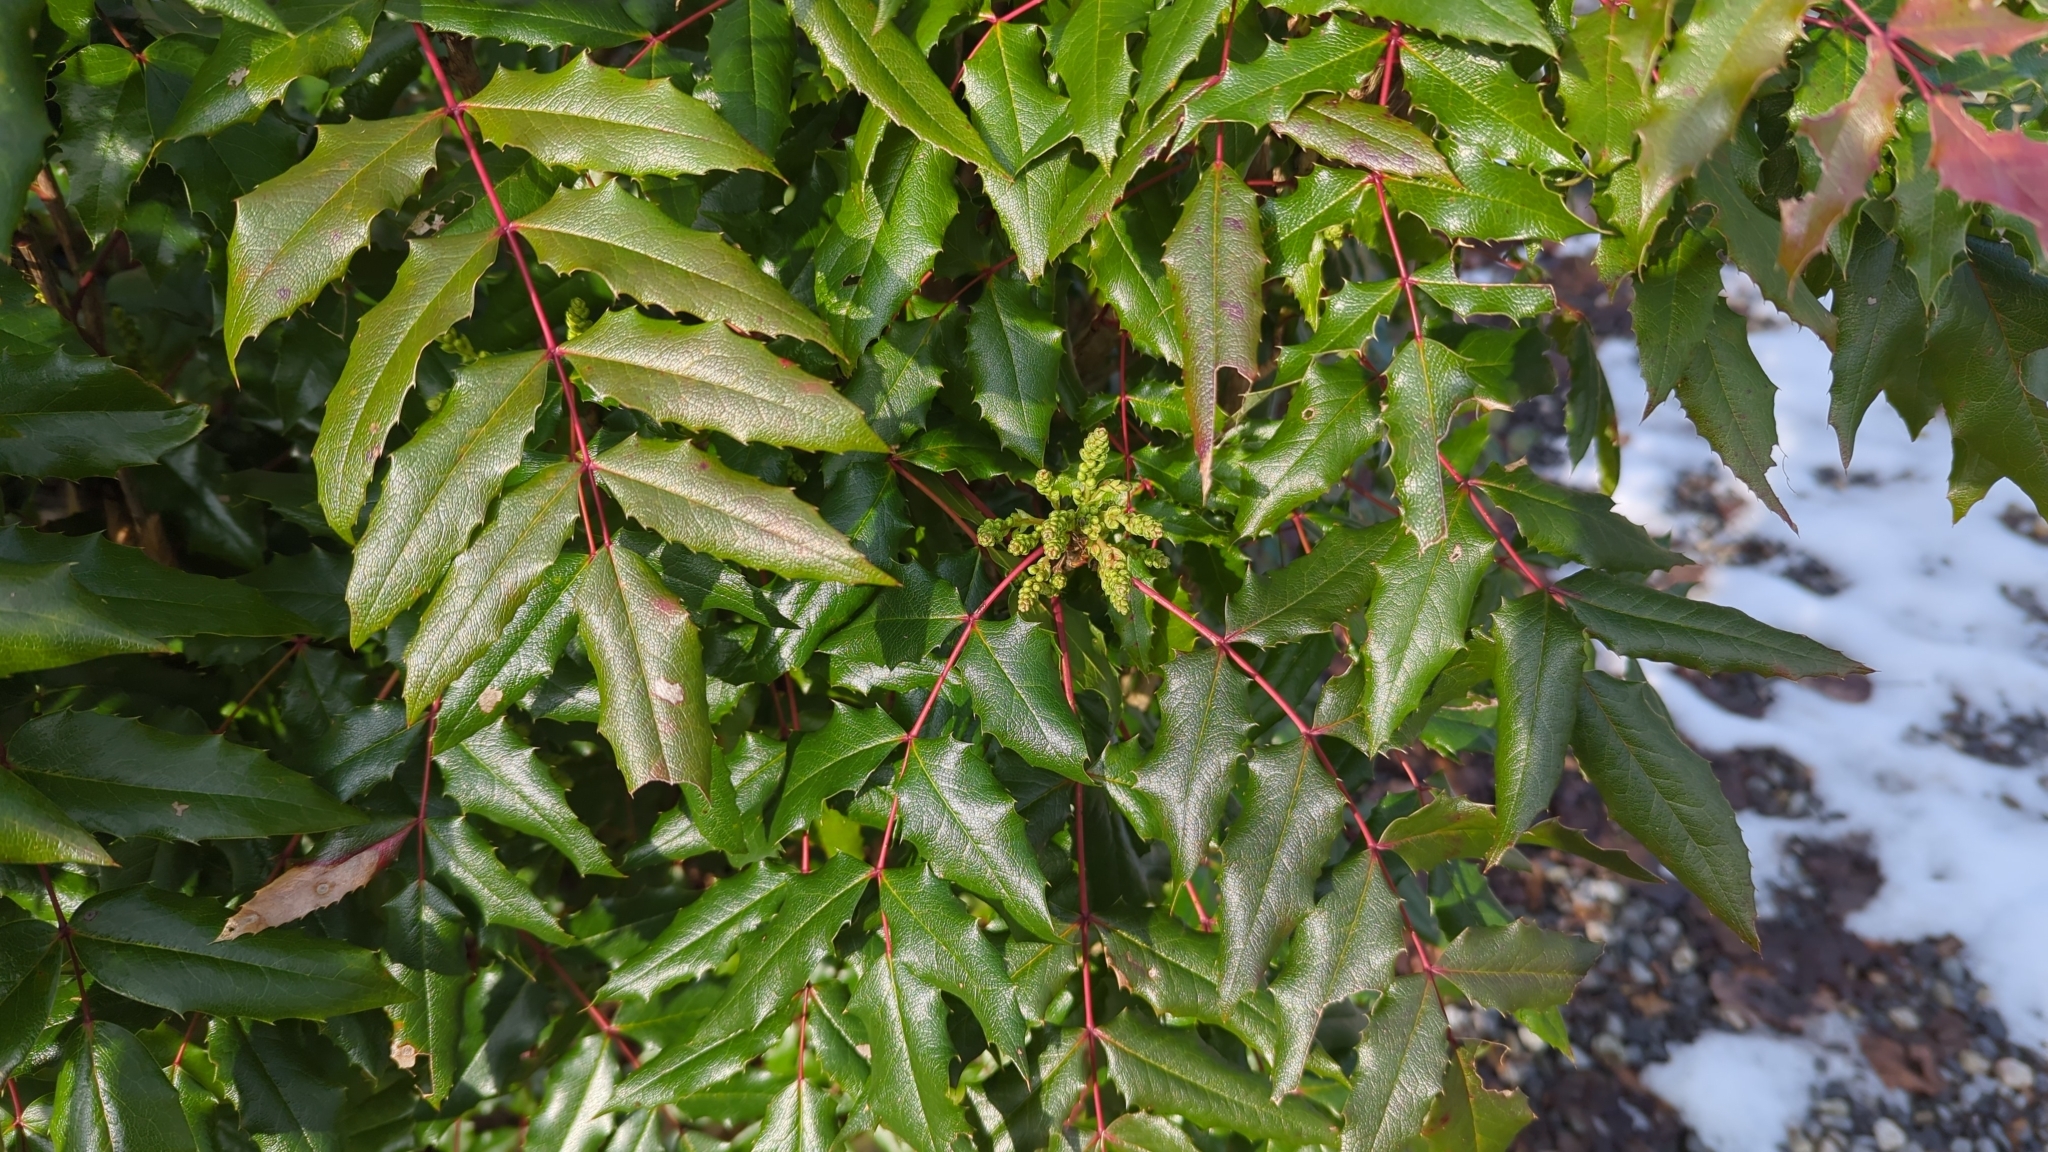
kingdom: Plantae
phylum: Tracheophyta
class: Magnoliopsida
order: Ranunculales
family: Berberidaceae
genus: Mahonia
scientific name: Mahonia aquifolium
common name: Oregon-grape
